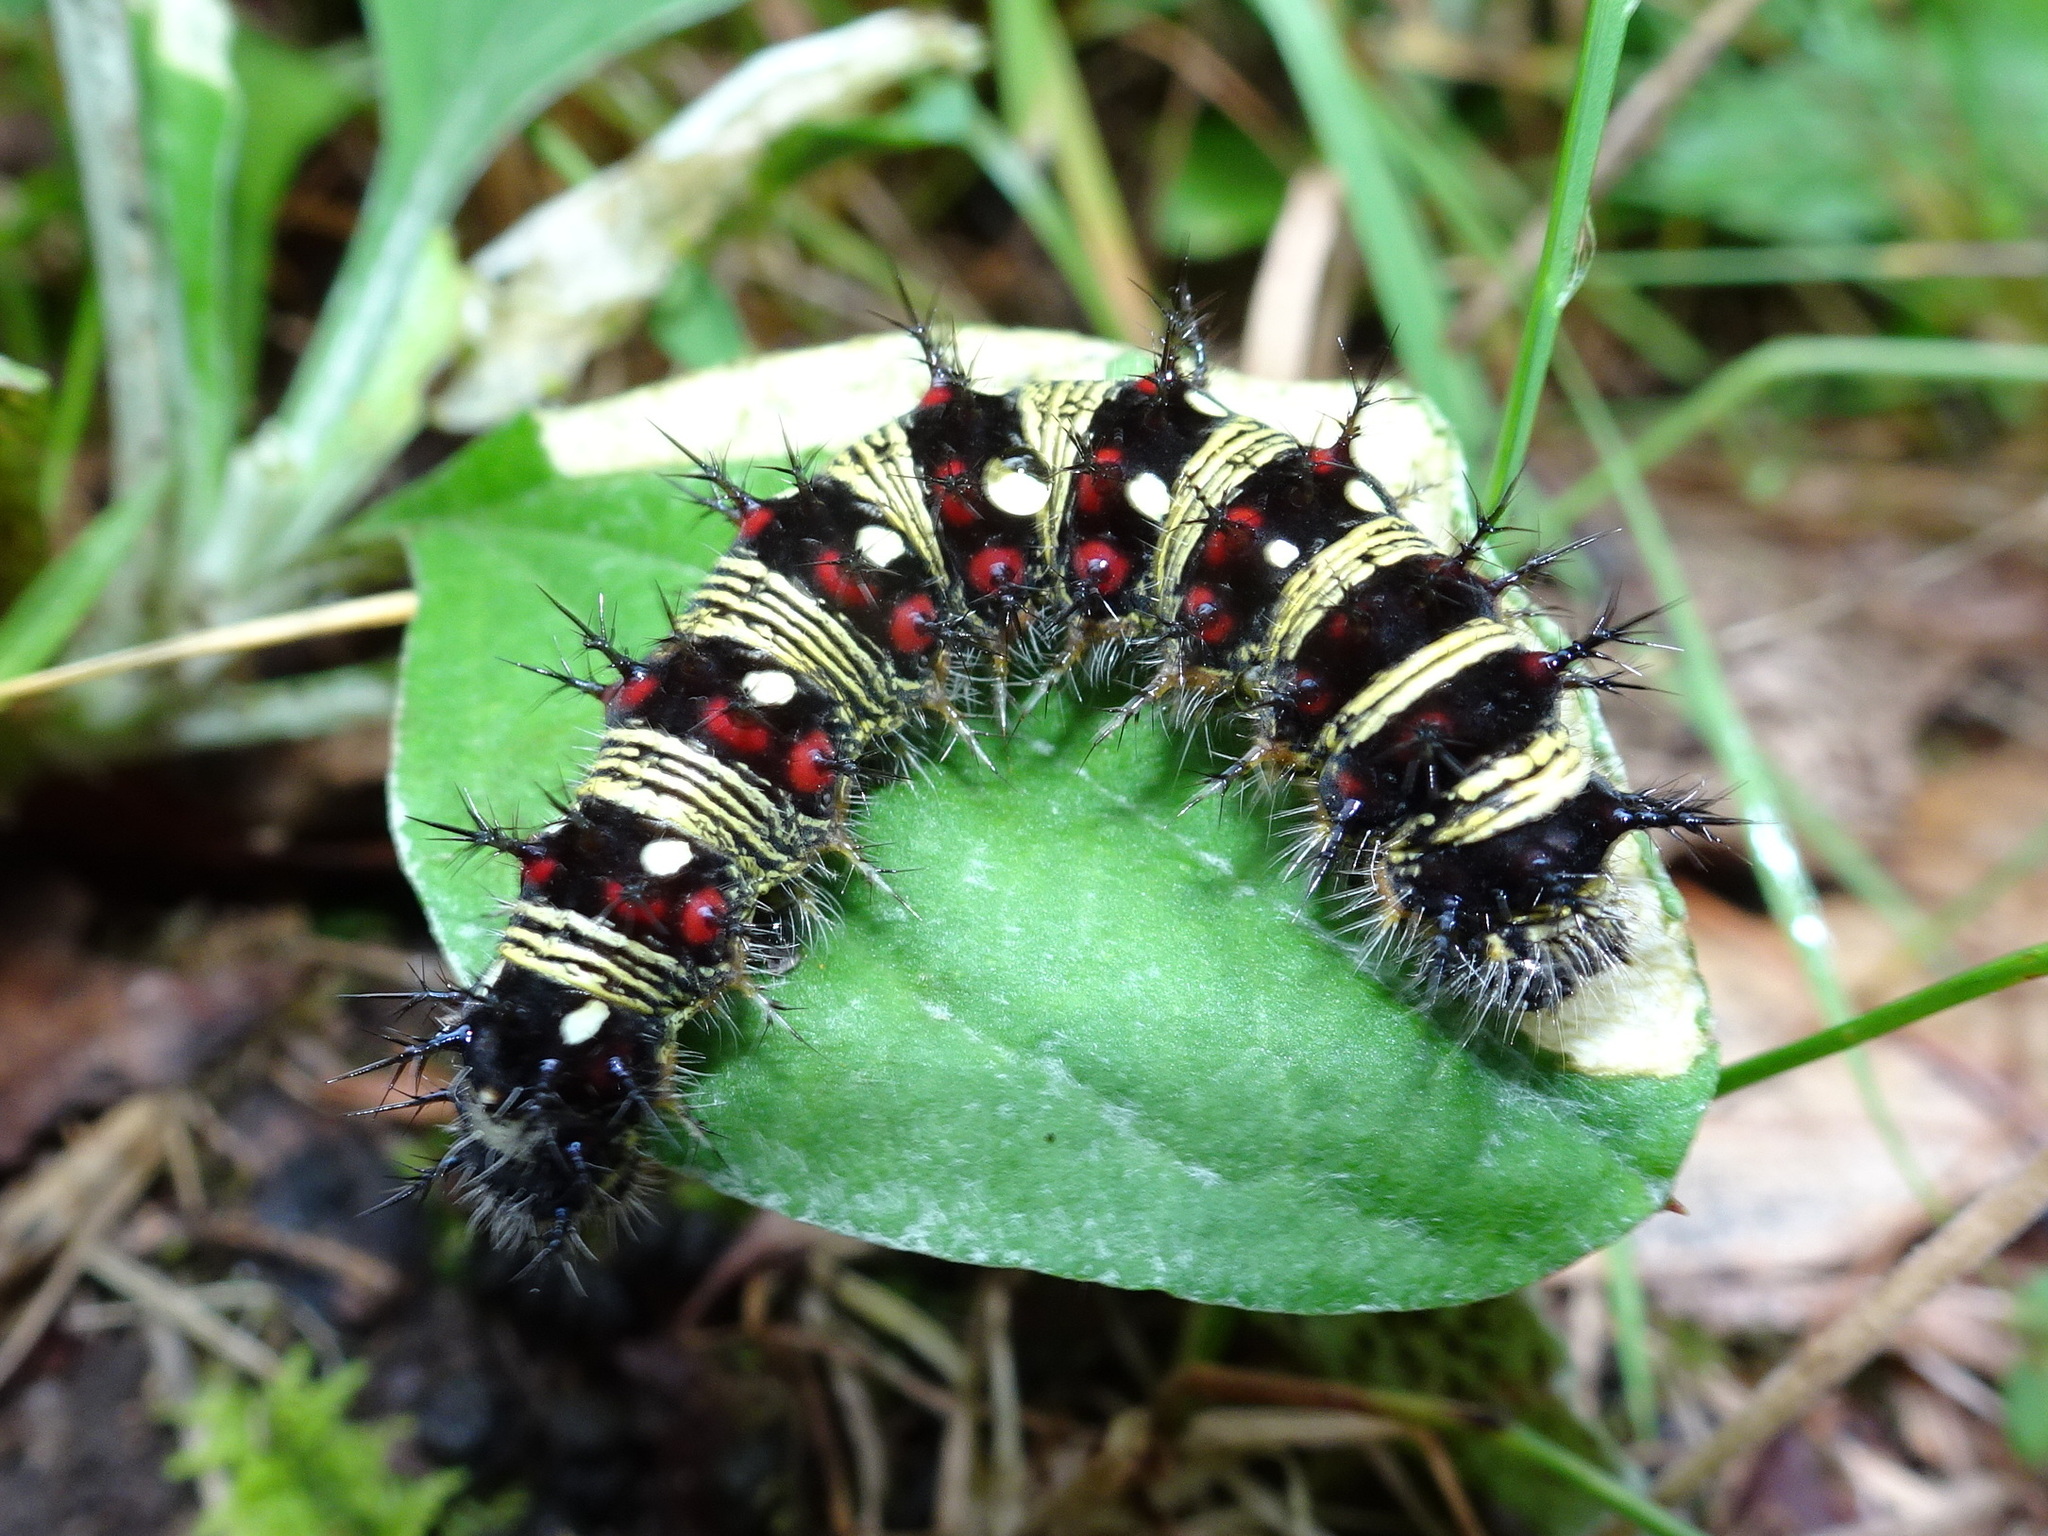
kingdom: Animalia
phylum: Arthropoda
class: Insecta
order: Lepidoptera
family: Nymphalidae
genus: Vanessa
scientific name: Vanessa virginiensis
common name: American lady
